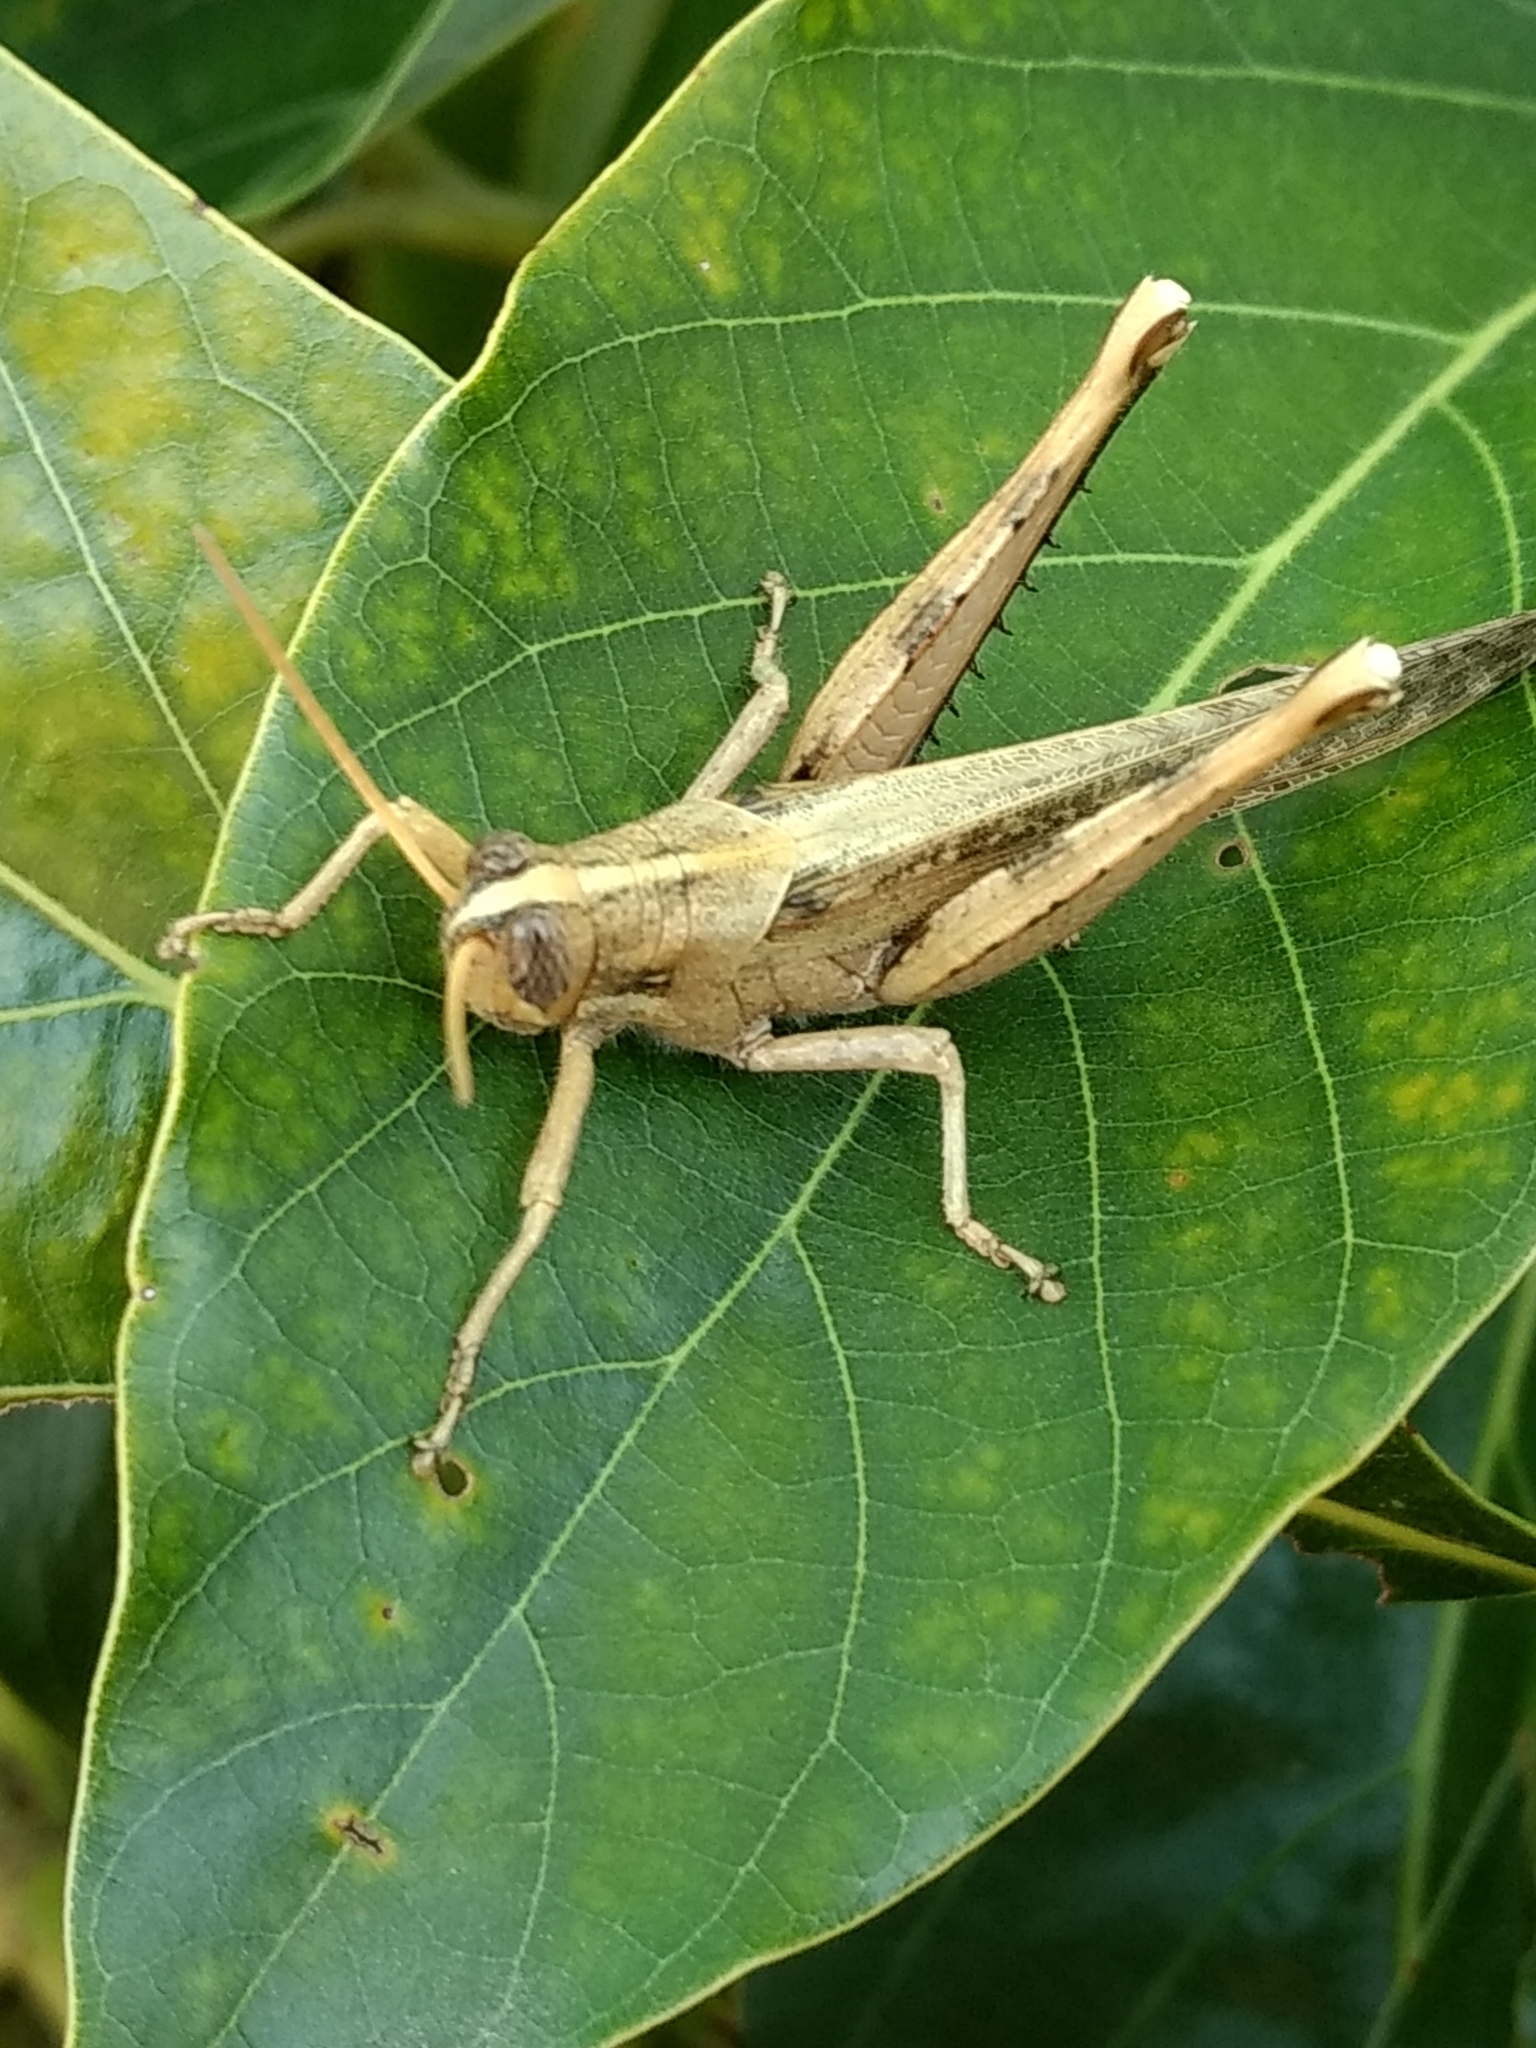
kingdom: Animalia
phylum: Arthropoda
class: Insecta
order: Orthoptera
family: Acrididae
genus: Schistocerca
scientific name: Schistocerca nitens
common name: Vagrant grasshopper
